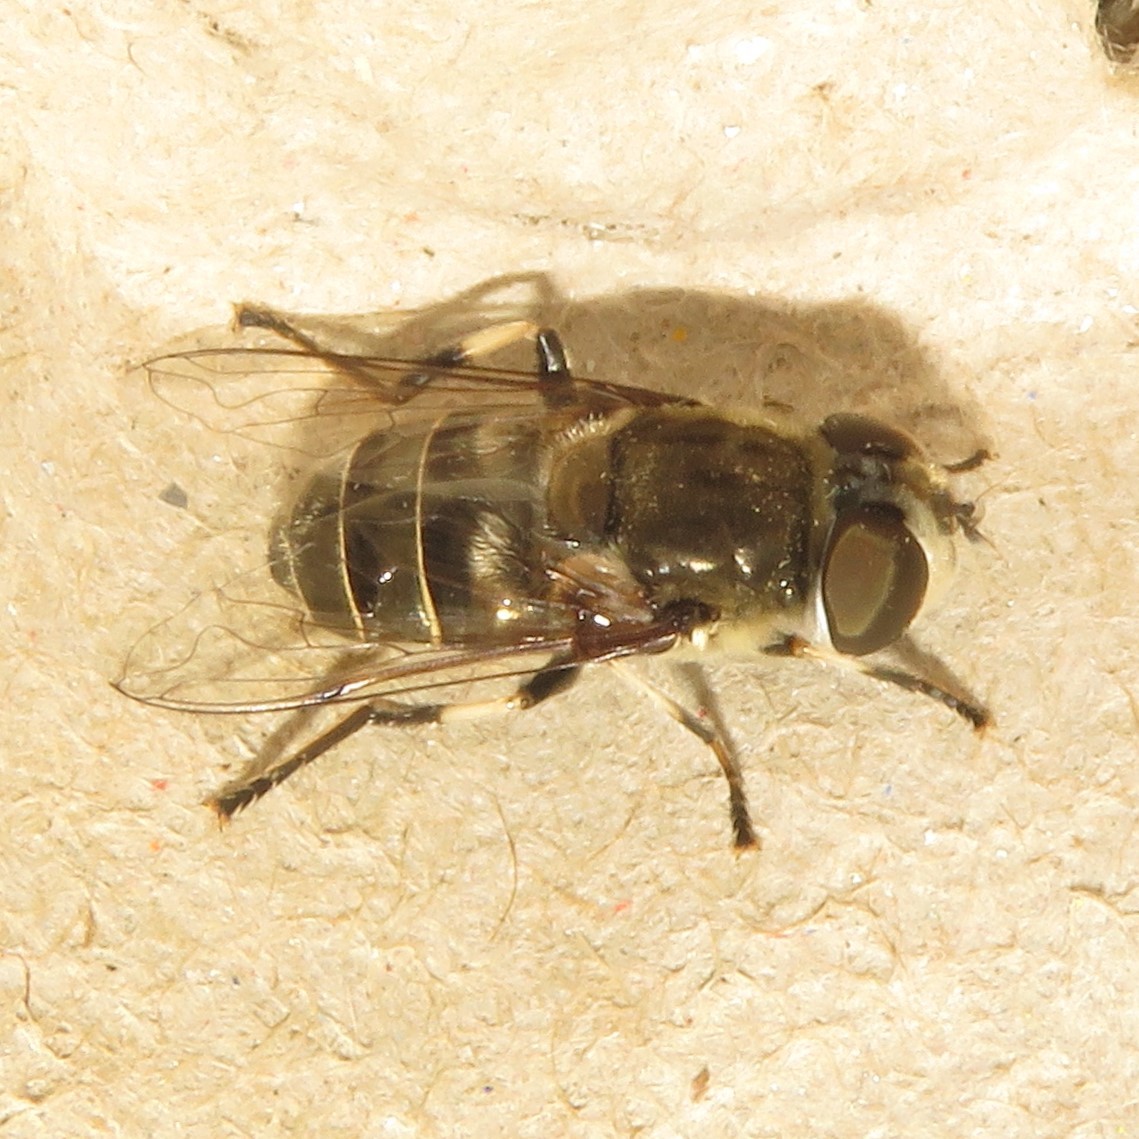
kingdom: Animalia
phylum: Arthropoda
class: Insecta
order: Diptera
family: Syrphidae
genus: Eristalis
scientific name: Eristalis dimidiata
